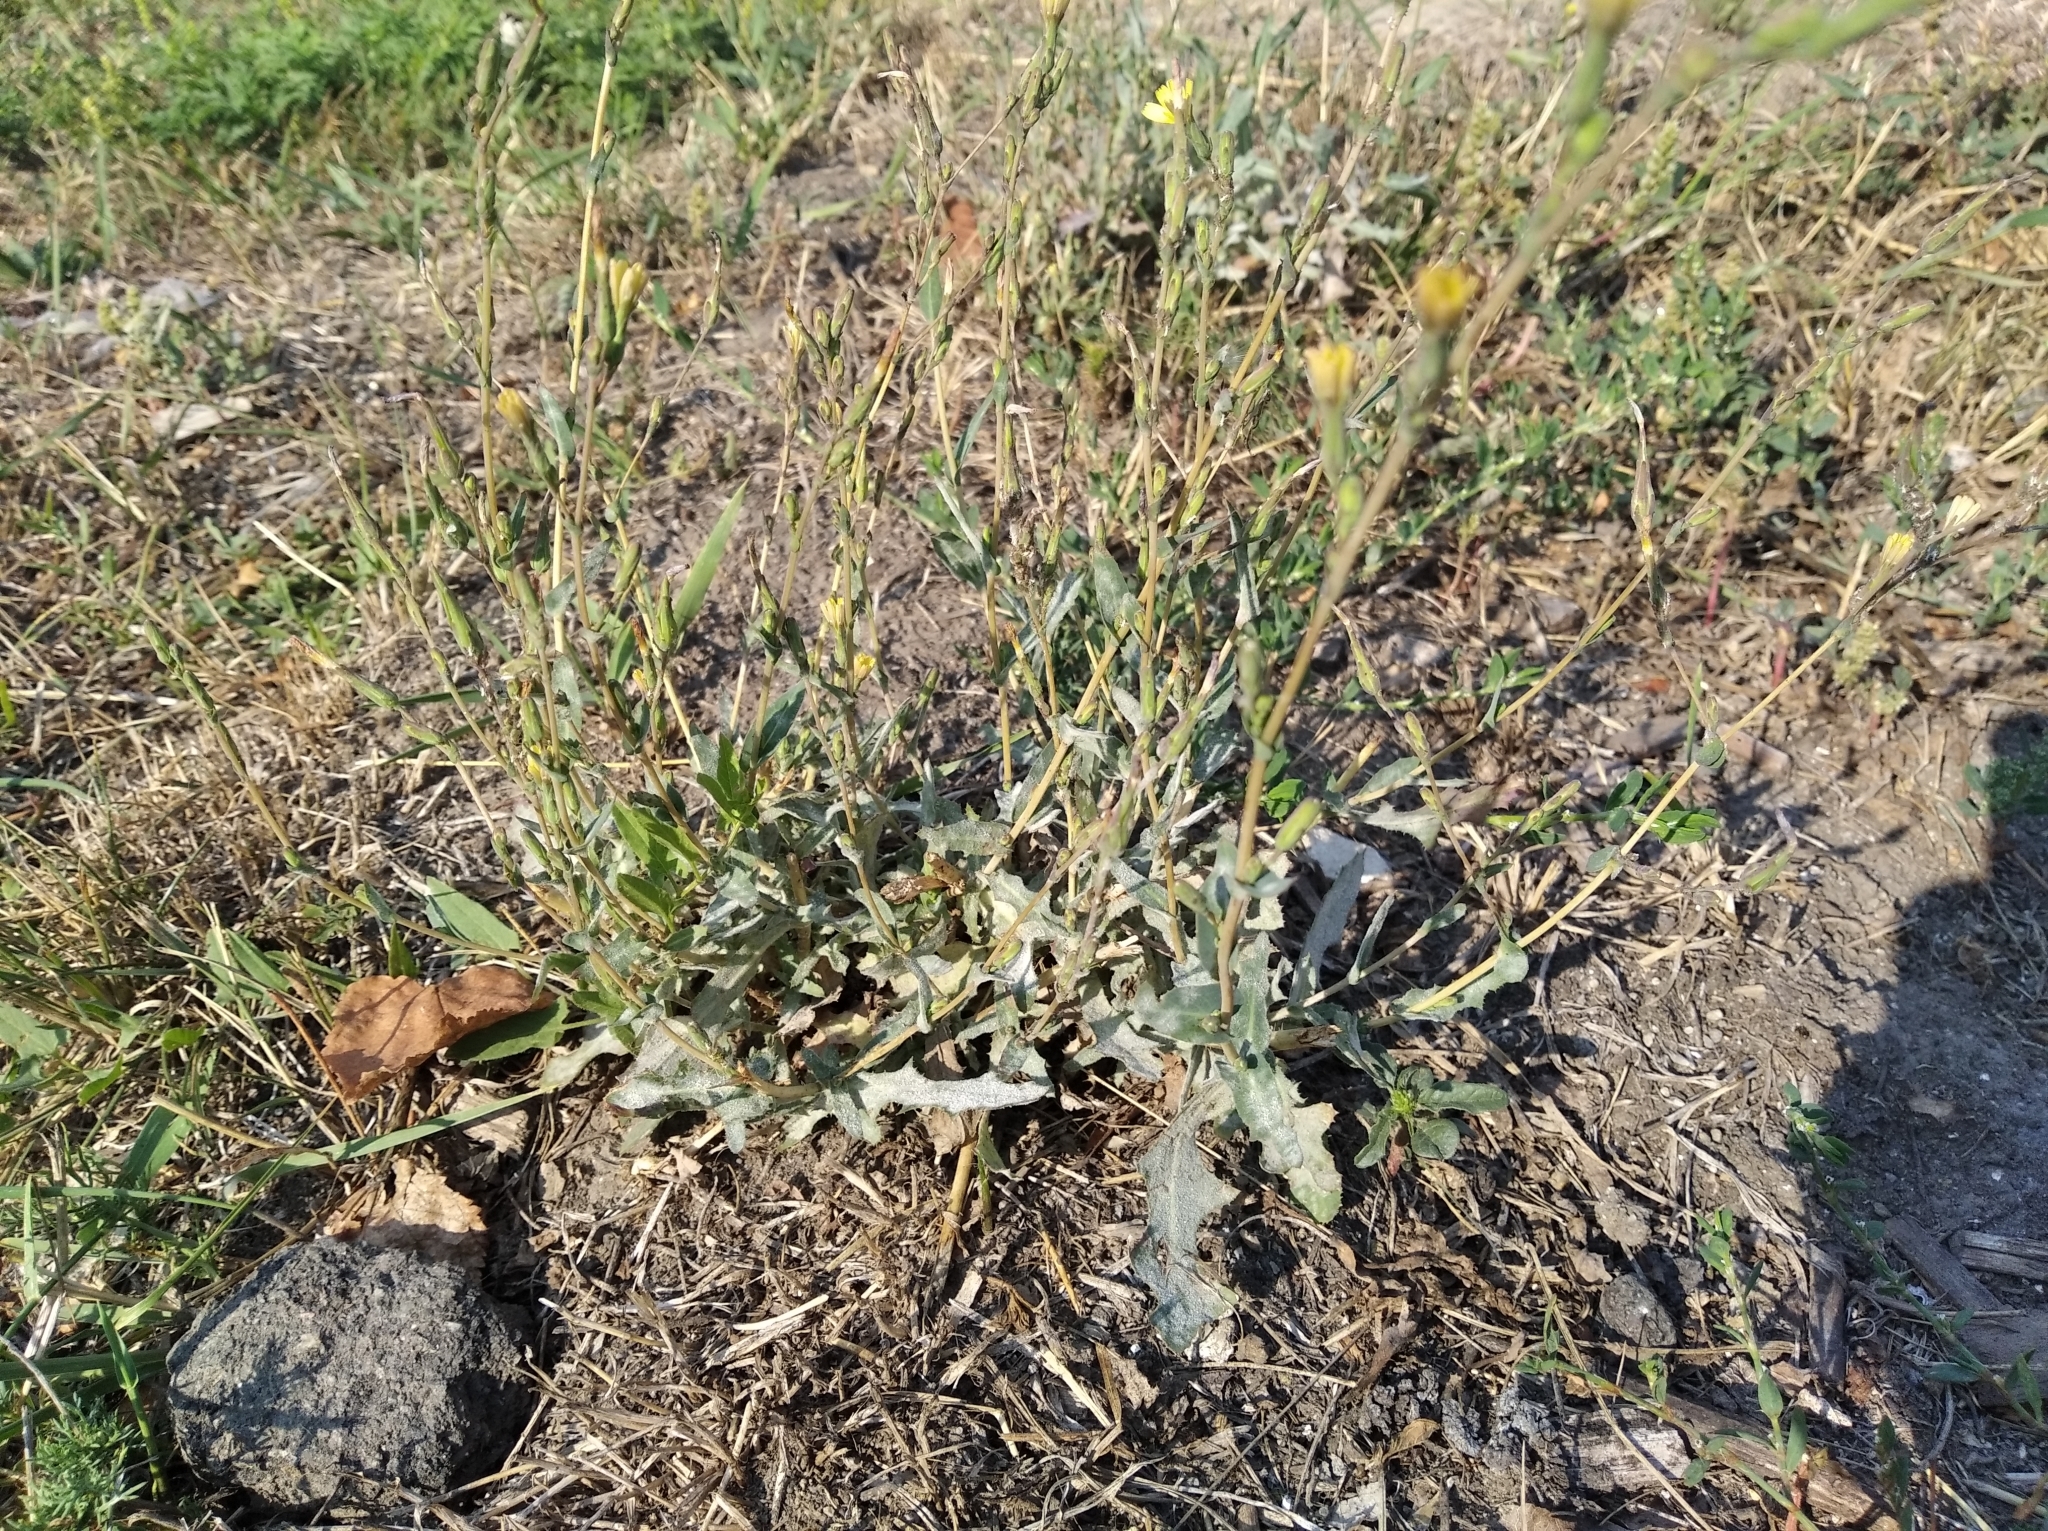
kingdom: Plantae
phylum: Tracheophyta
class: Magnoliopsida
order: Asterales
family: Asteraceae
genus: Lactuca
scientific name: Lactuca serriola
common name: Prickly lettuce
